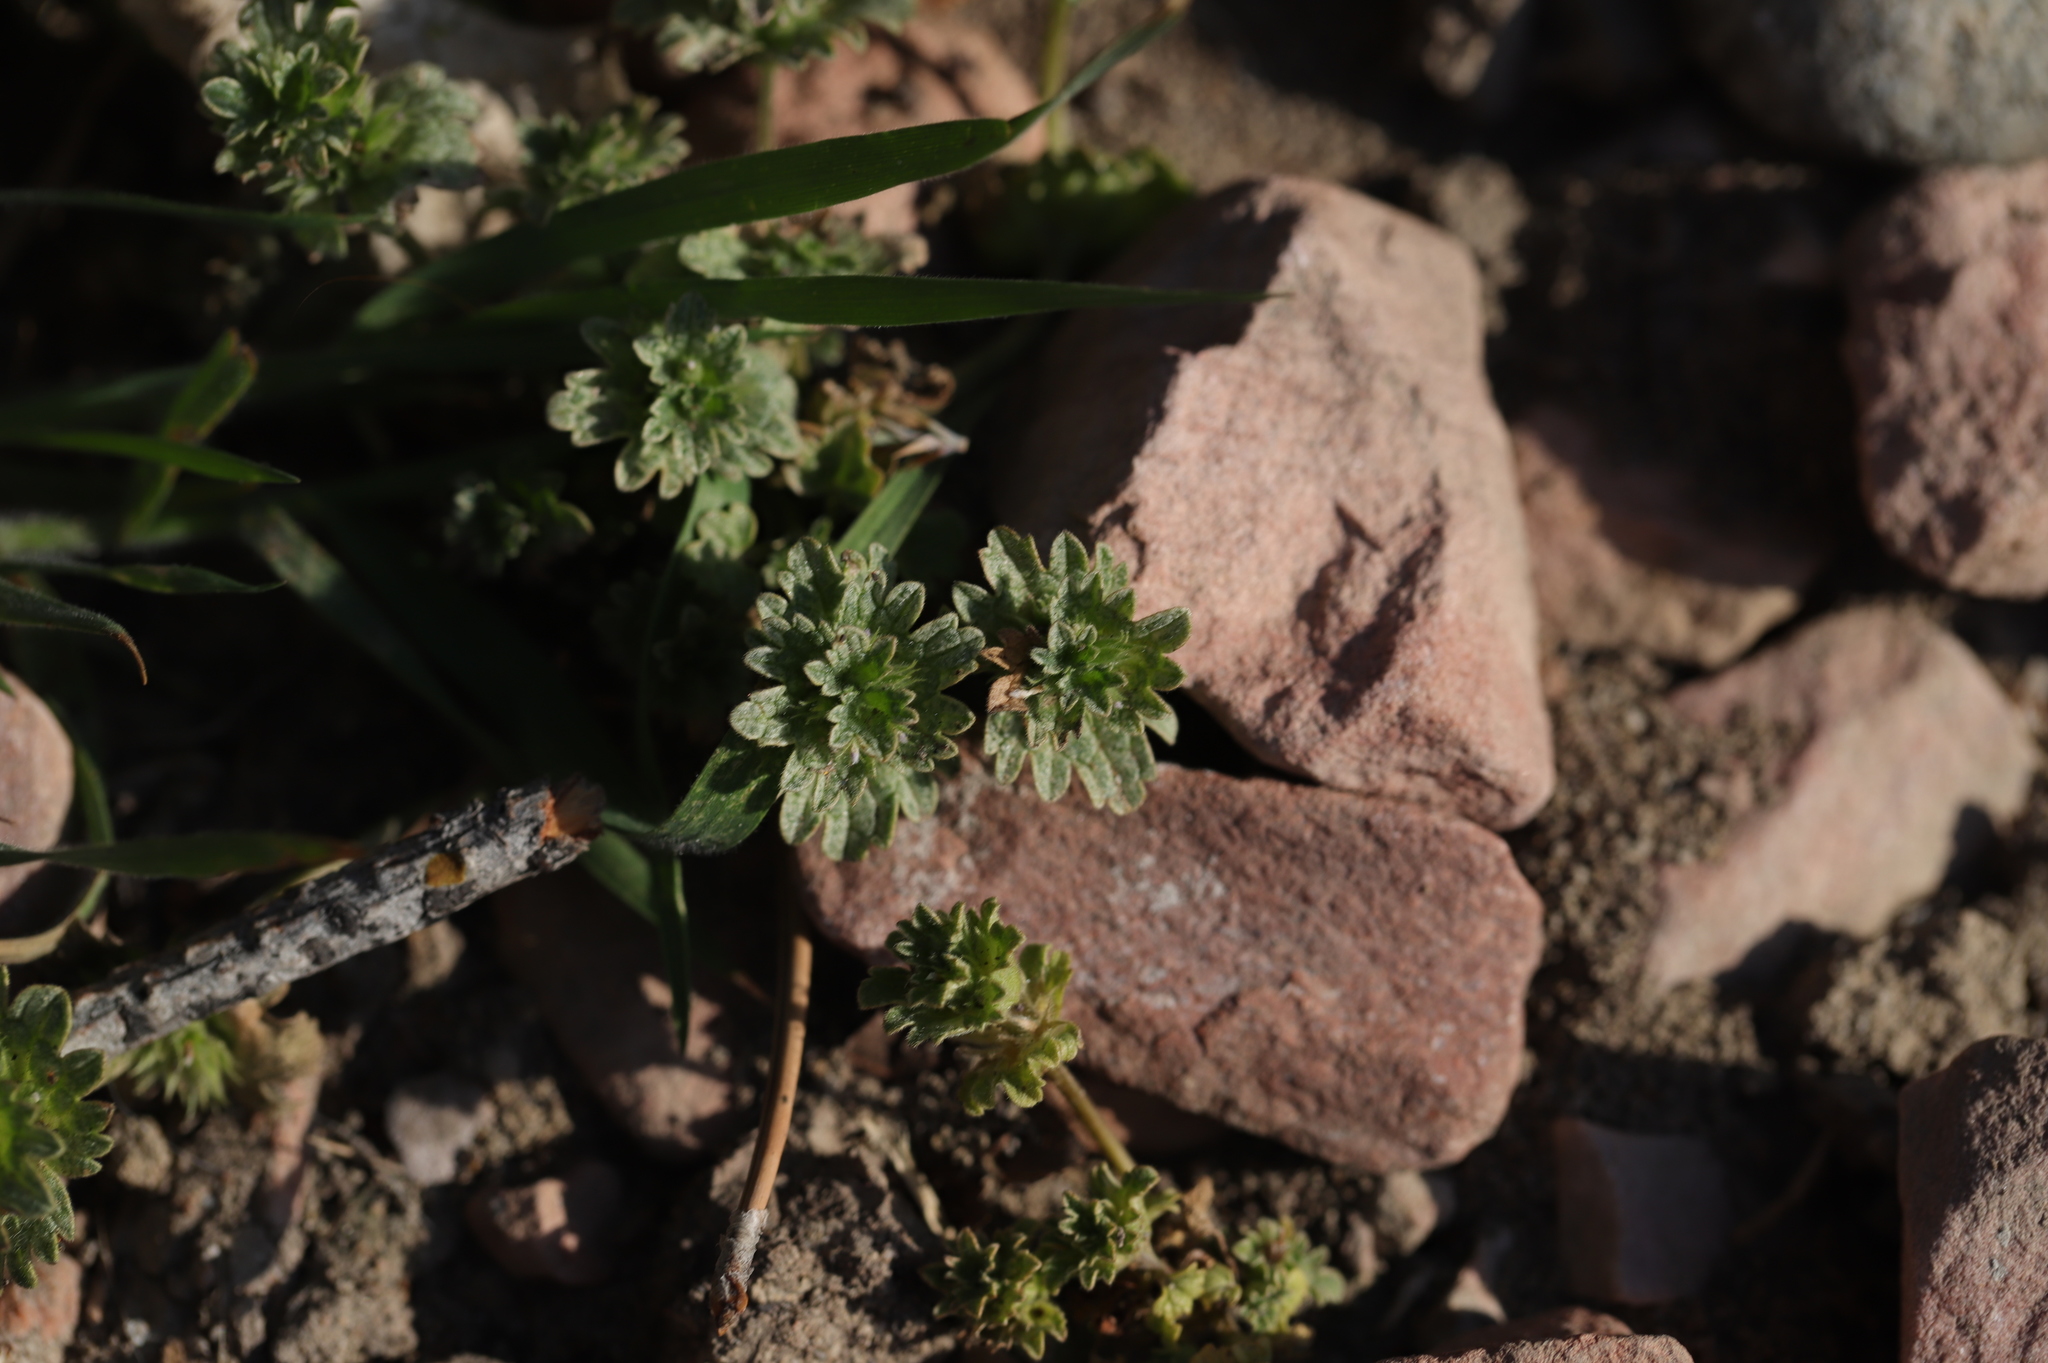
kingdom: Plantae
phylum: Tracheophyta
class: Magnoliopsida
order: Lamiales
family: Lamiaceae
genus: Lamium
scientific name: Lamium amplexicaule
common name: Henbit dead-nettle
